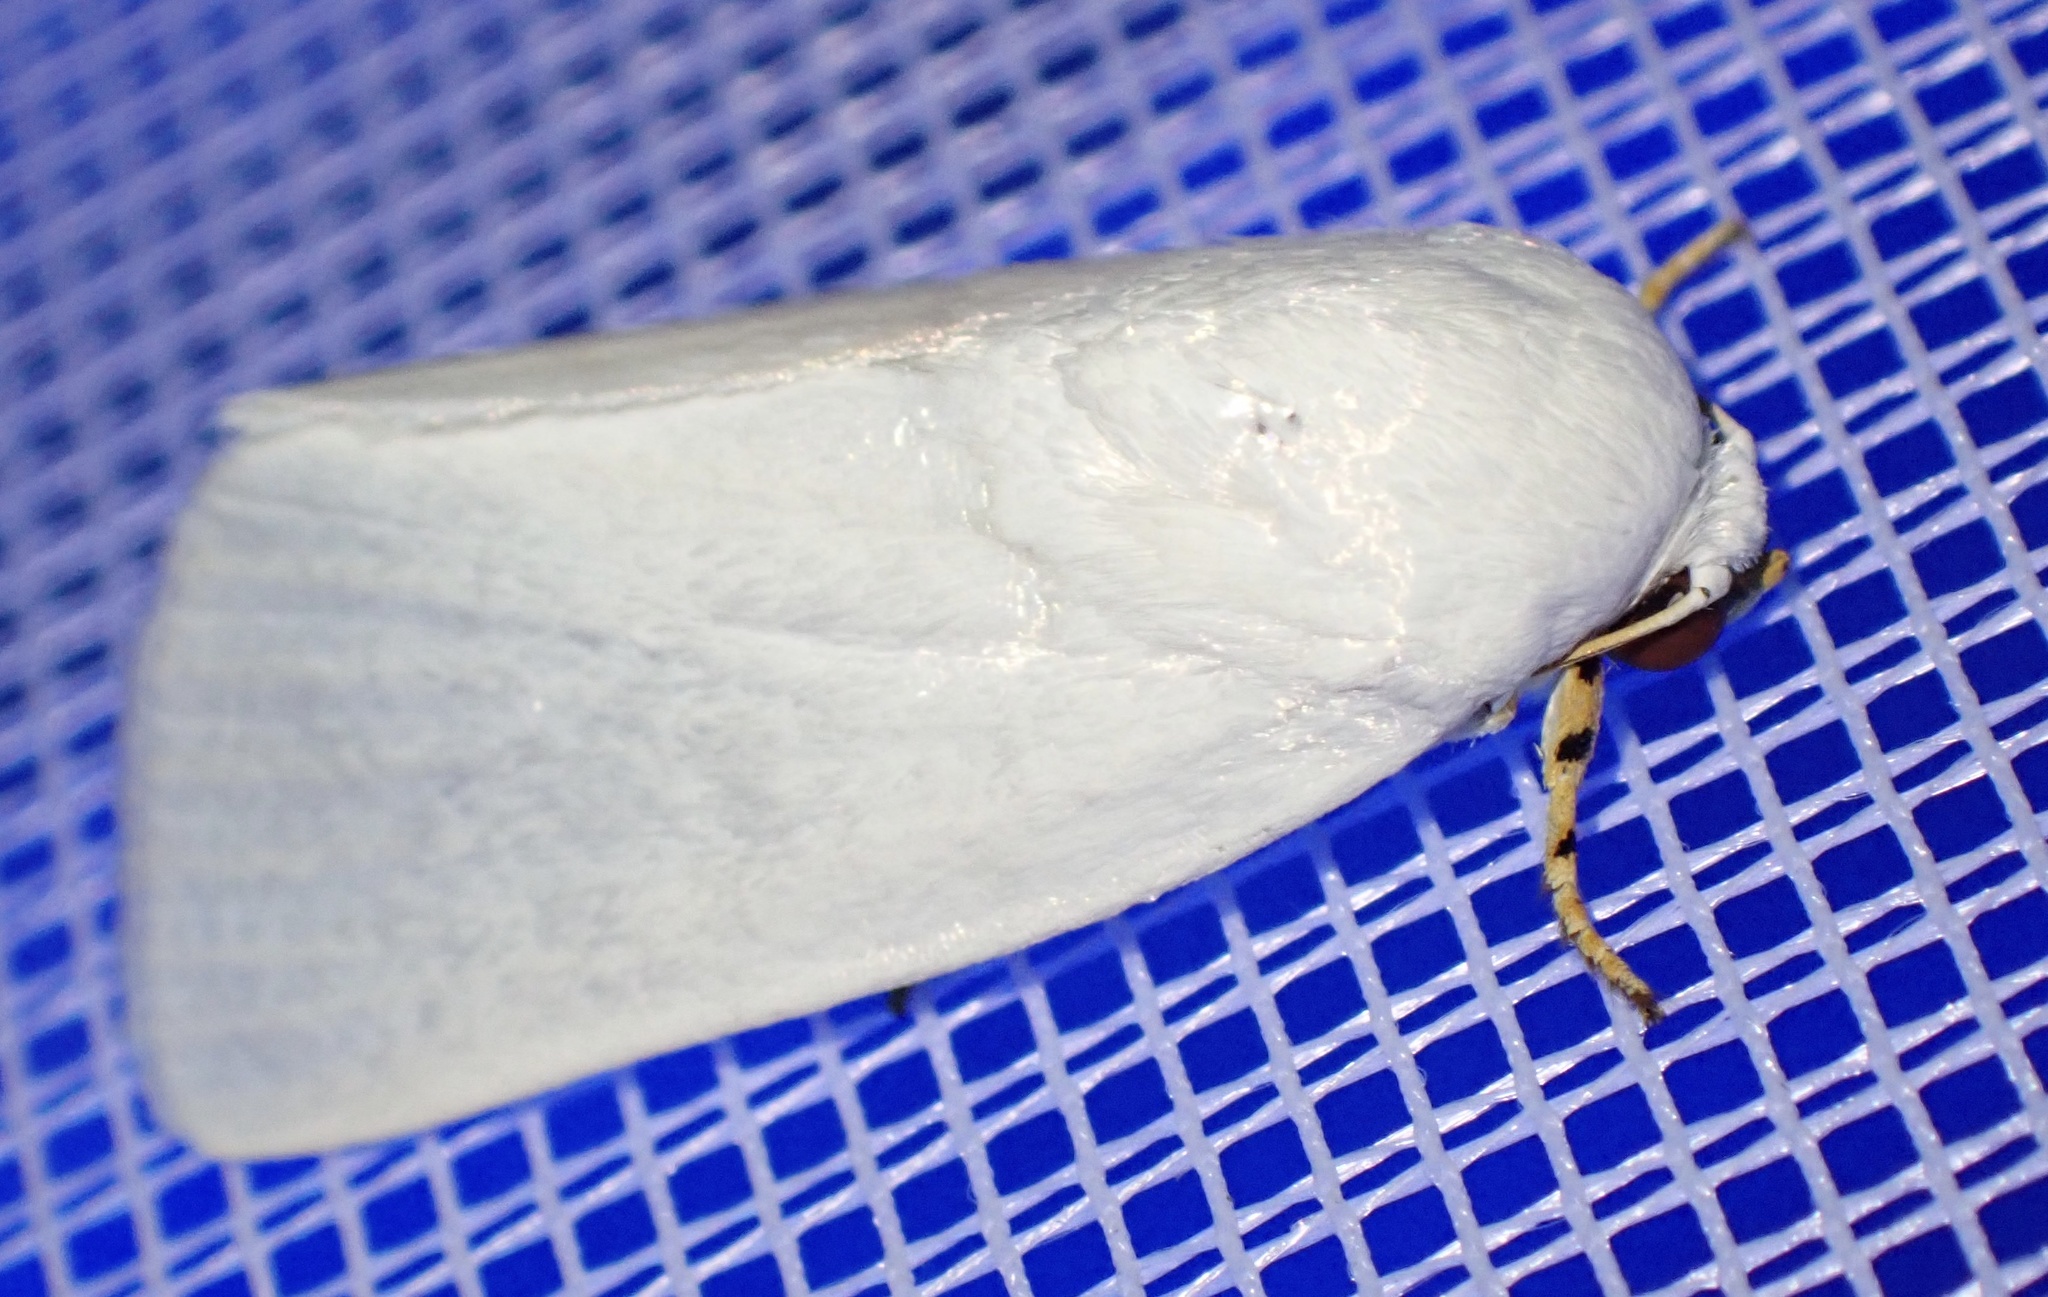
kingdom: Animalia
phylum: Arthropoda
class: Insecta
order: Lepidoptera
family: Noctuidae
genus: Chasmina
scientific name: Chasmina tibialis
